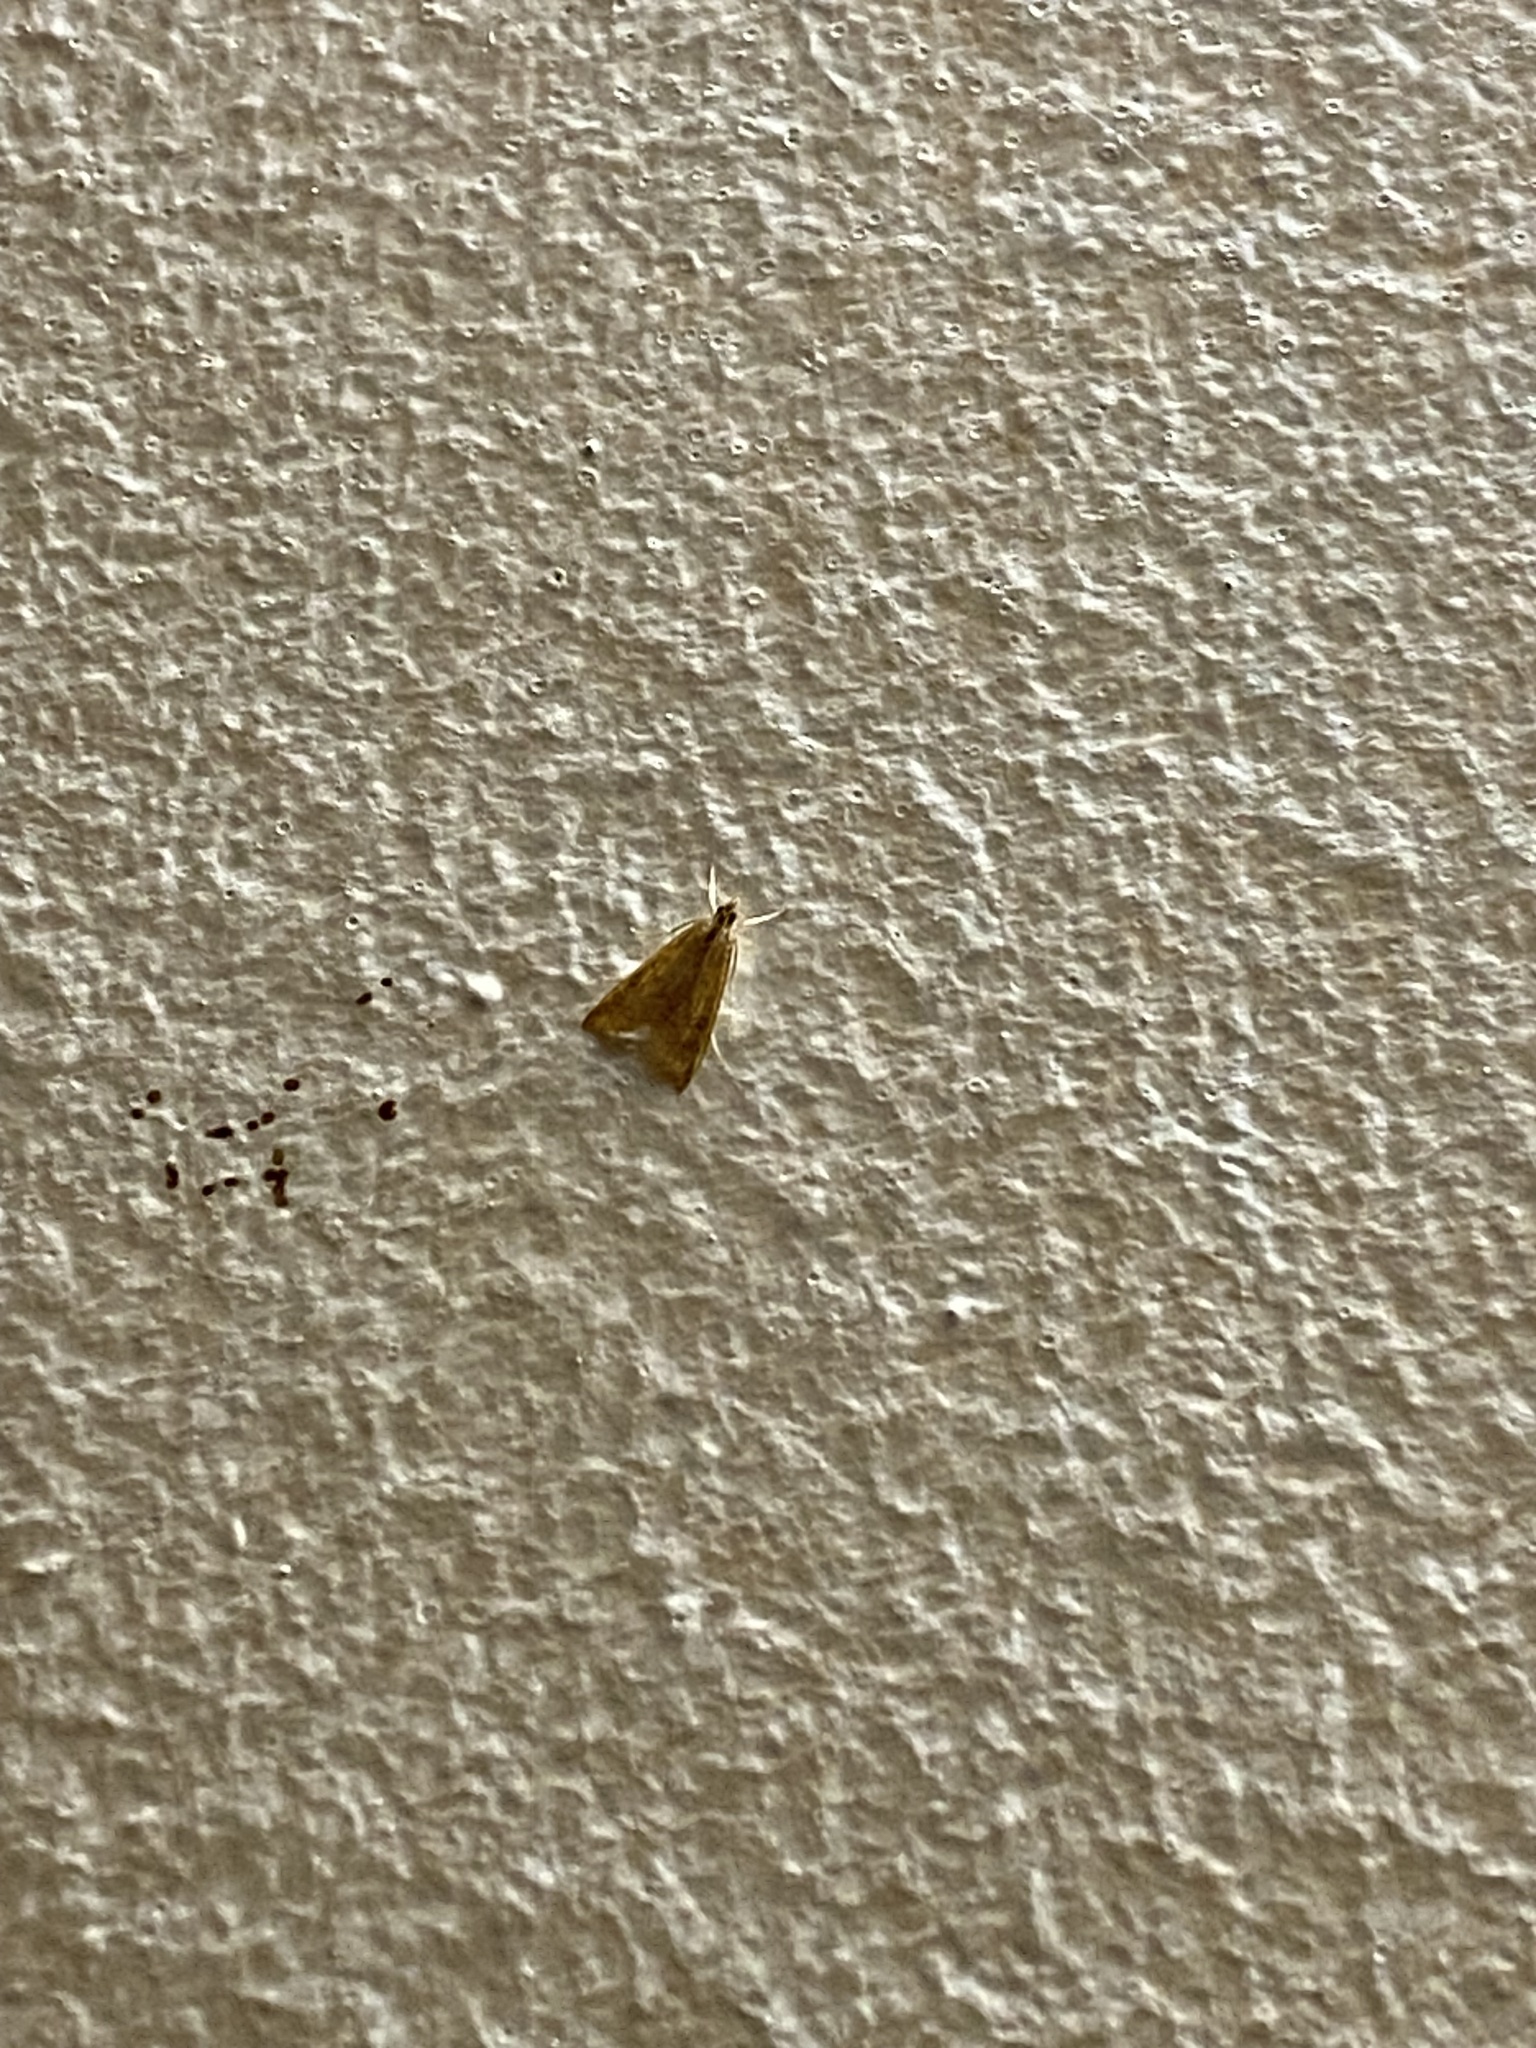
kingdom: Animalia
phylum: Arthropoda
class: Insecta
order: Lepidoptera
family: Crambidae
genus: Udea
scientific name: Udea ferrugalis
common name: Rusty dot
